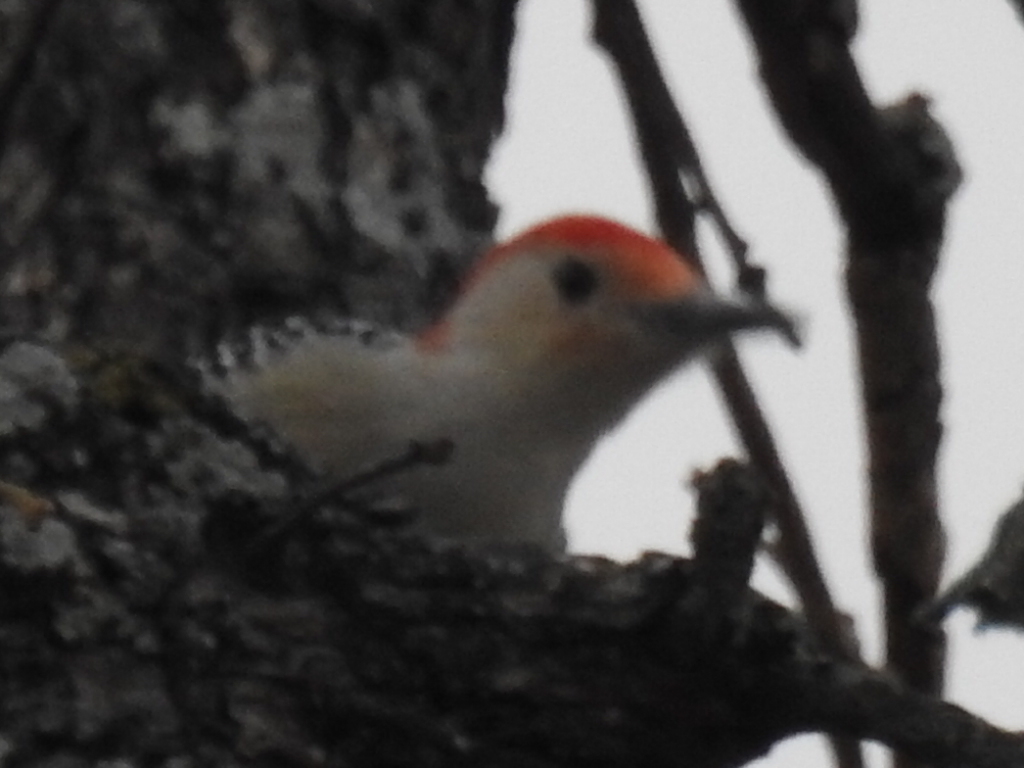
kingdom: Animalia
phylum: Chordata
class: Aves
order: Piciformes
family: Picidae
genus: Melanerpes
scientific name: Melanerpes carolinus
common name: Red-bellied woodpecker
